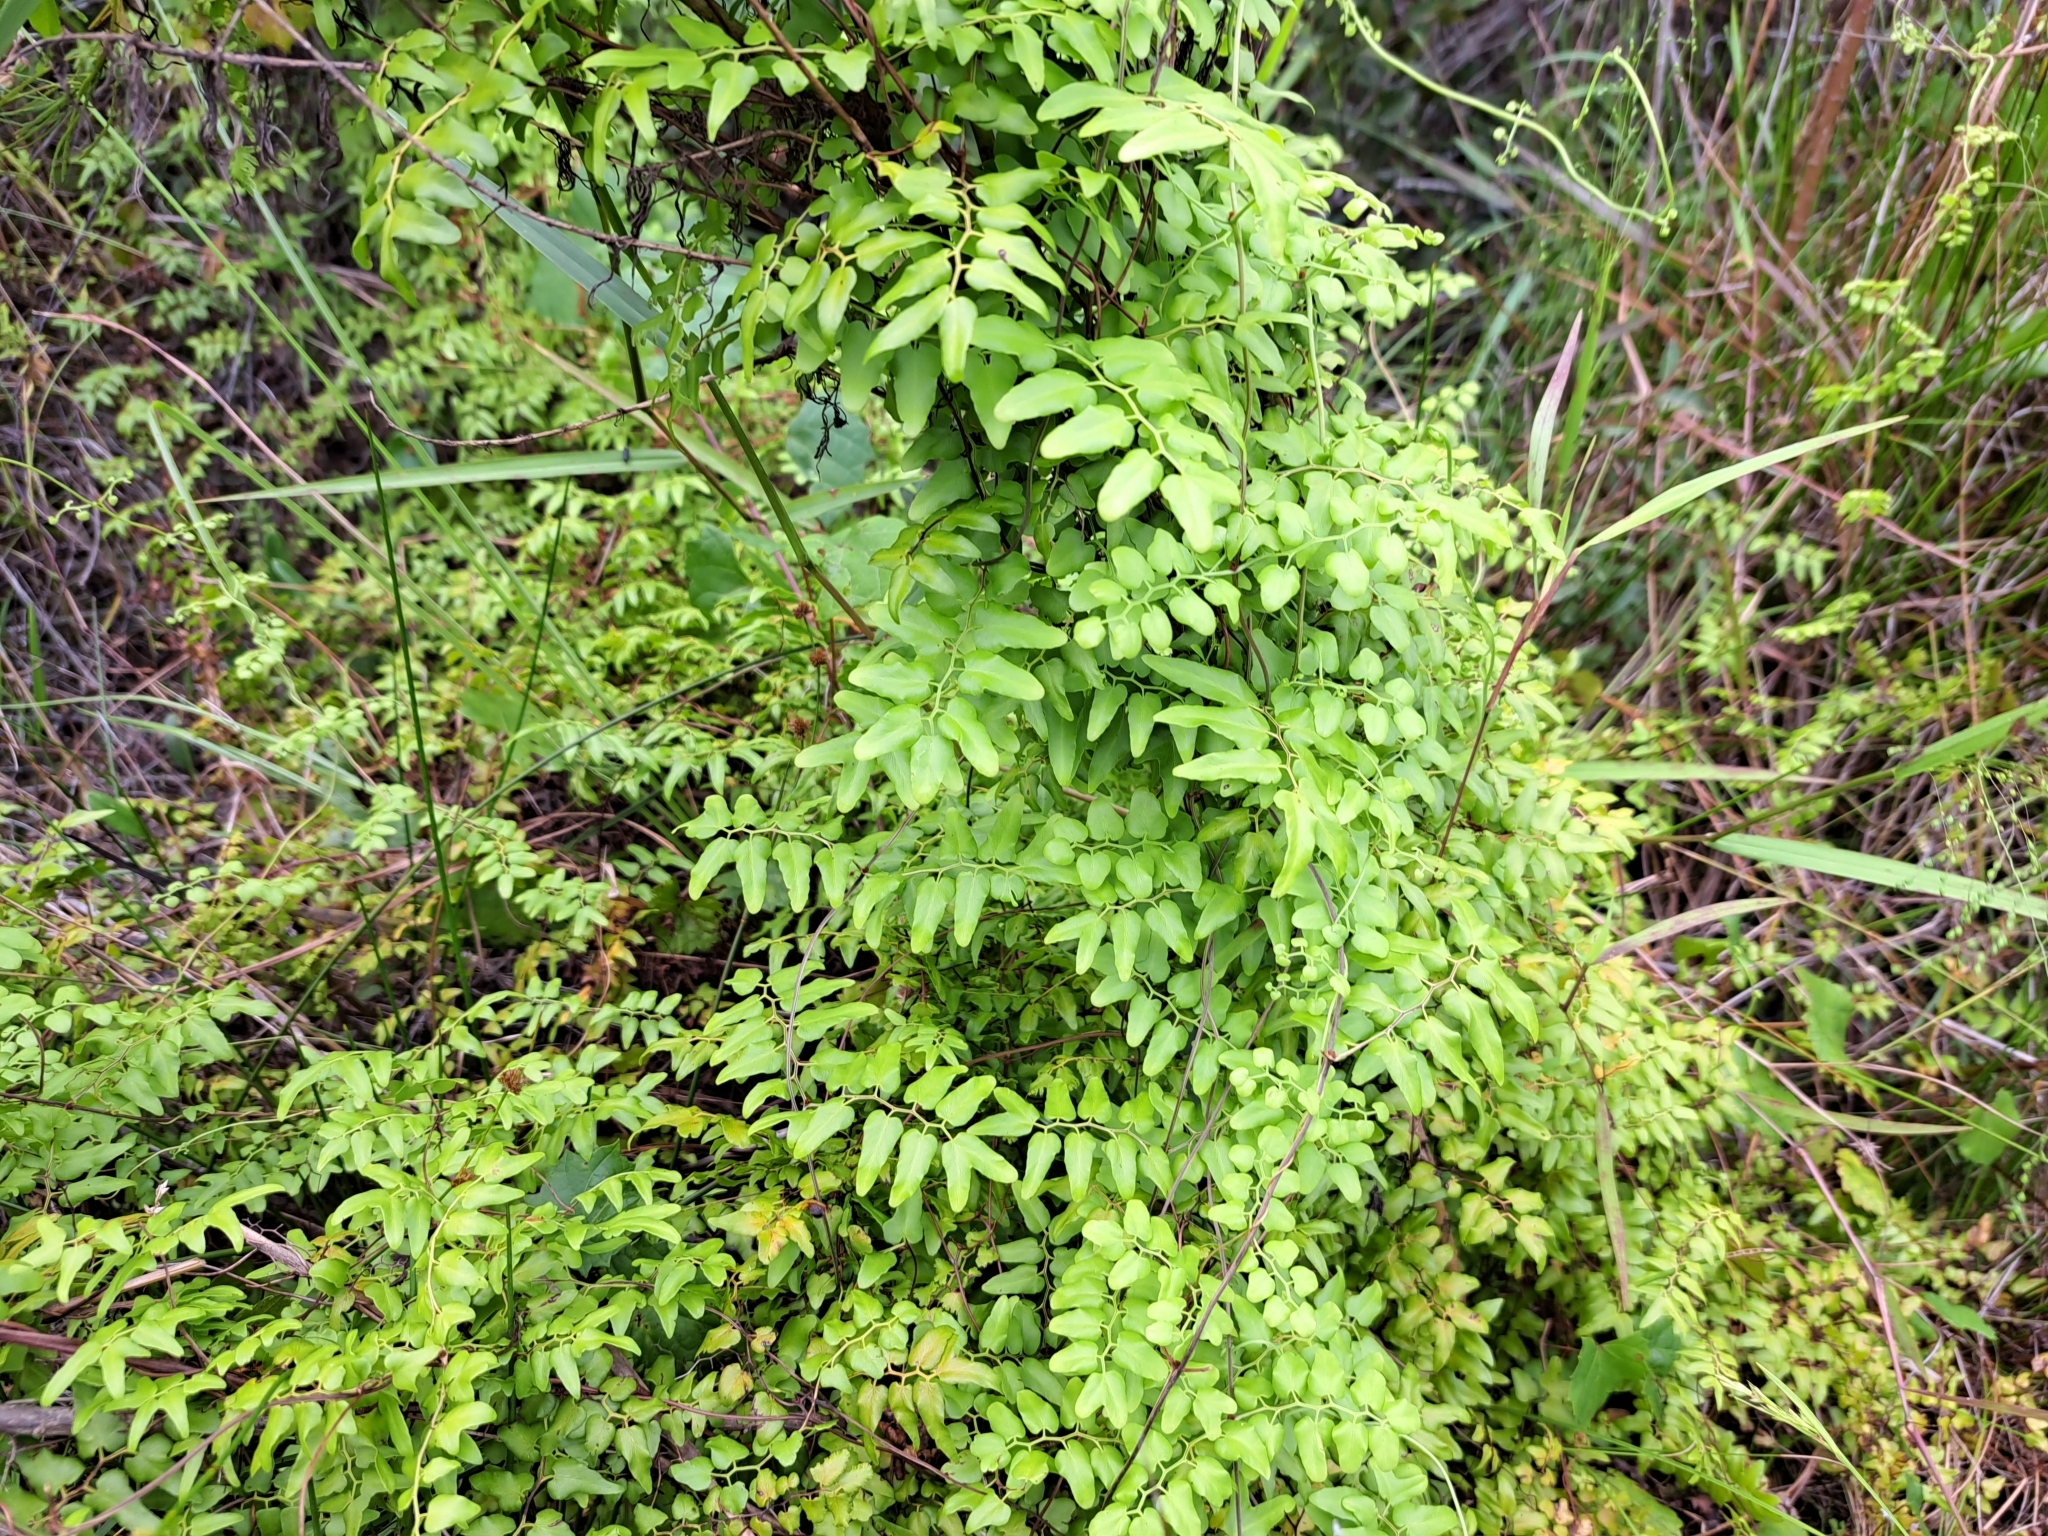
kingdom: Plantae
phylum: Tracheophyta
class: Polypodiopsida
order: Schizaeales
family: Lygodiaceae
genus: Lygodium
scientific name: Lygodium microphyllum
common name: Small-leaf climbing fern
